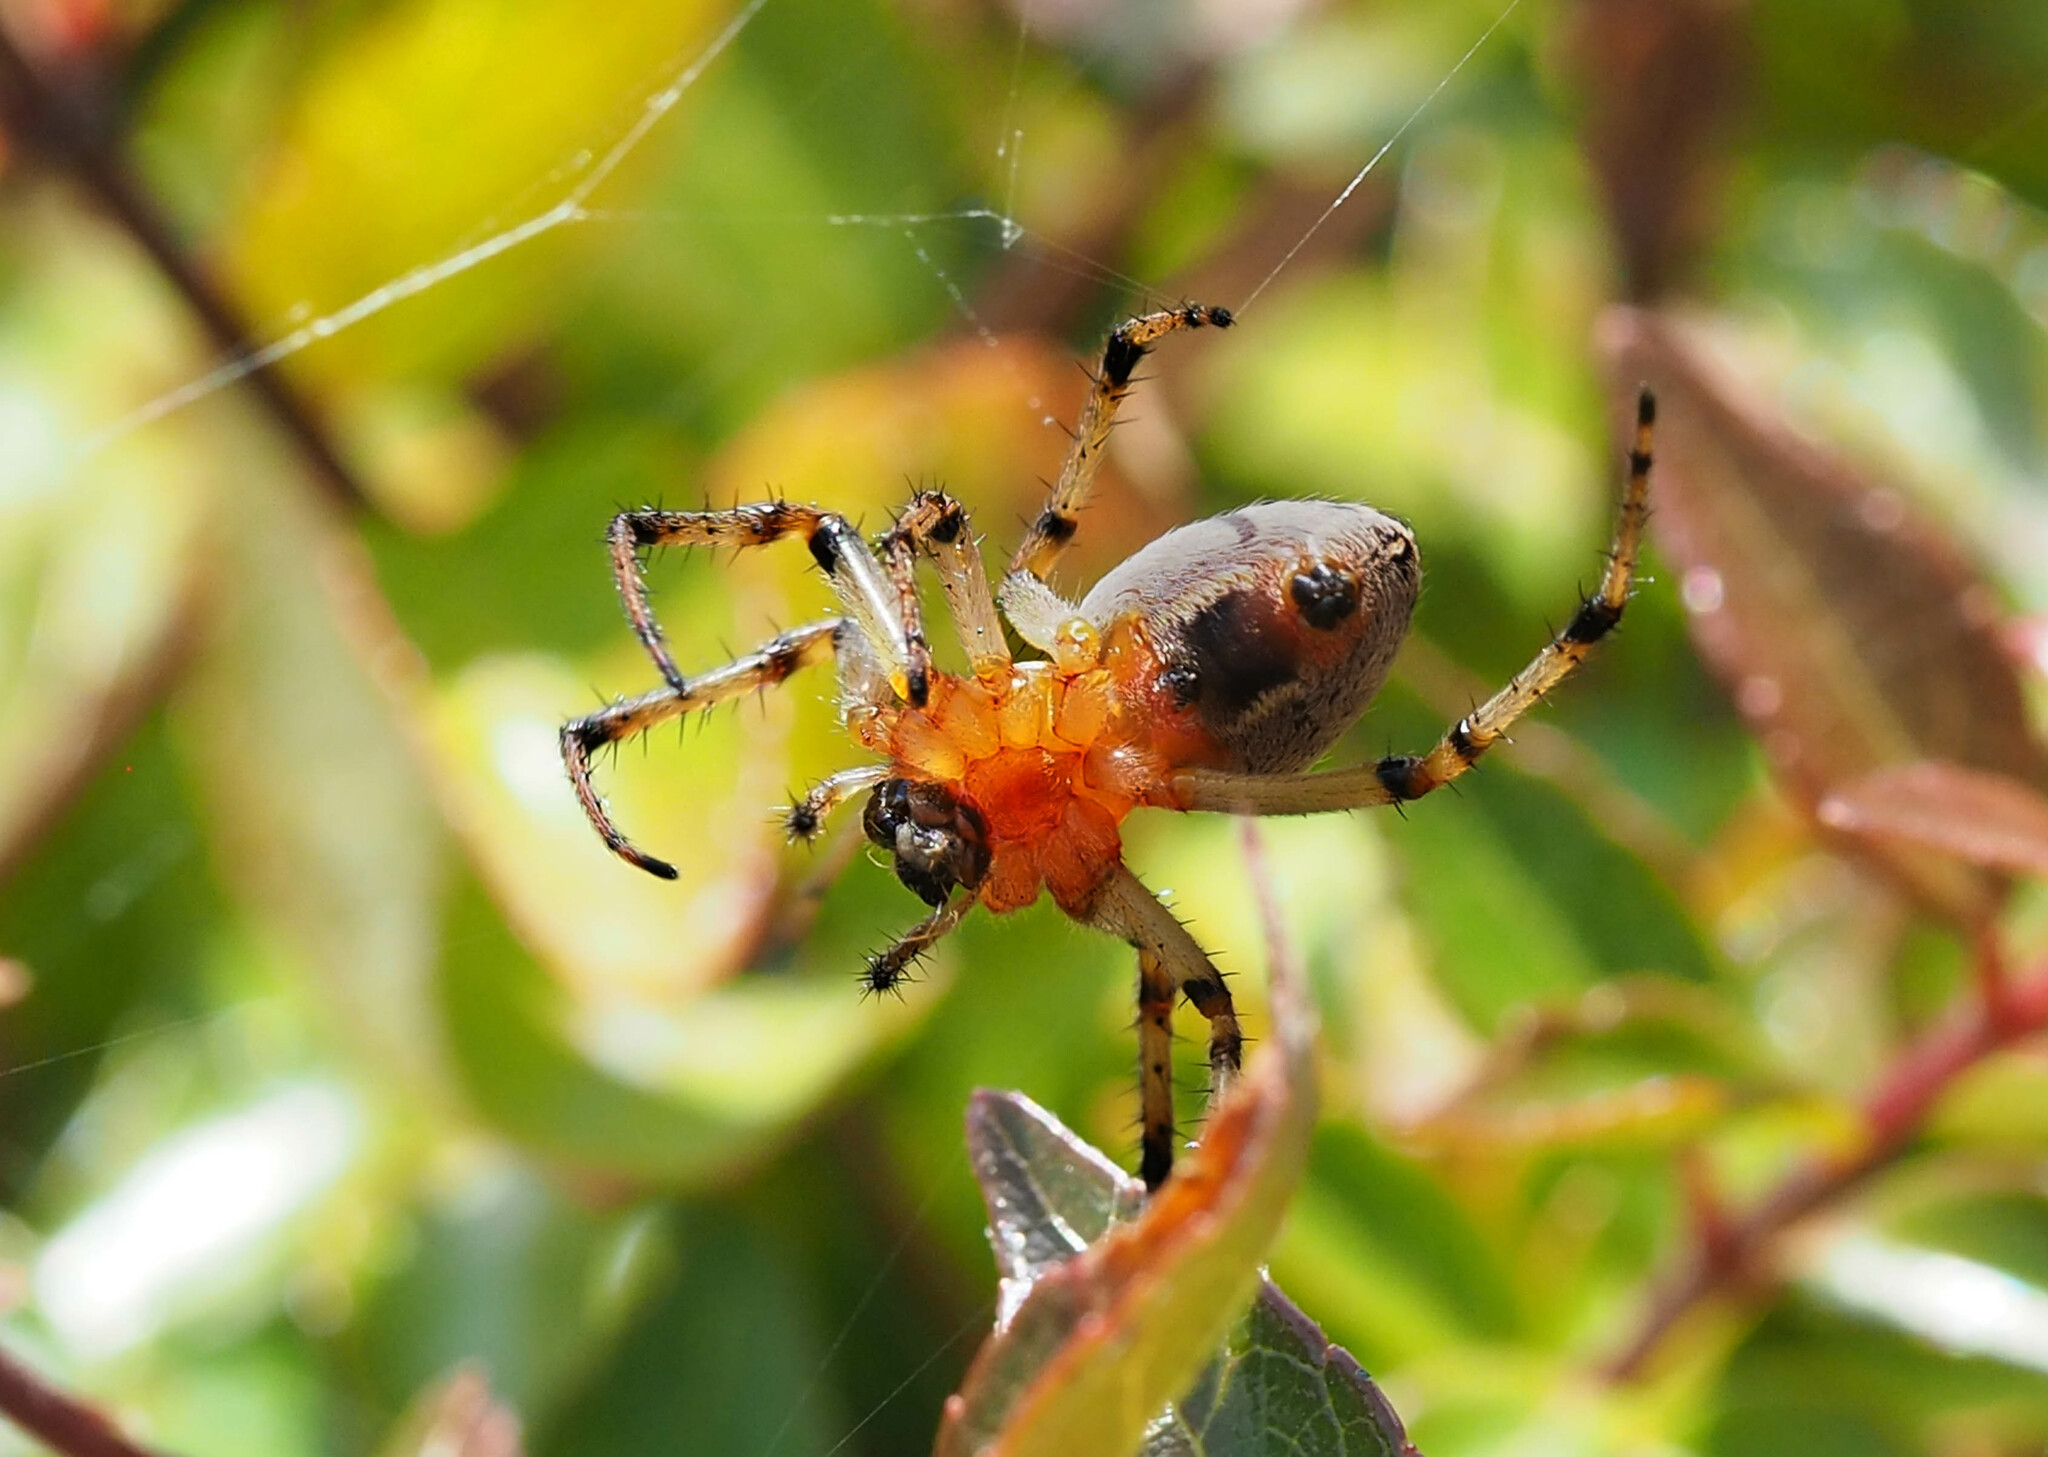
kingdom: Animalia
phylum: Arthropoda
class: Arachnida
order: Araneae
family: Araneidae
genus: Alpaida
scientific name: Alpaida veniliae
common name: Orb weavers
